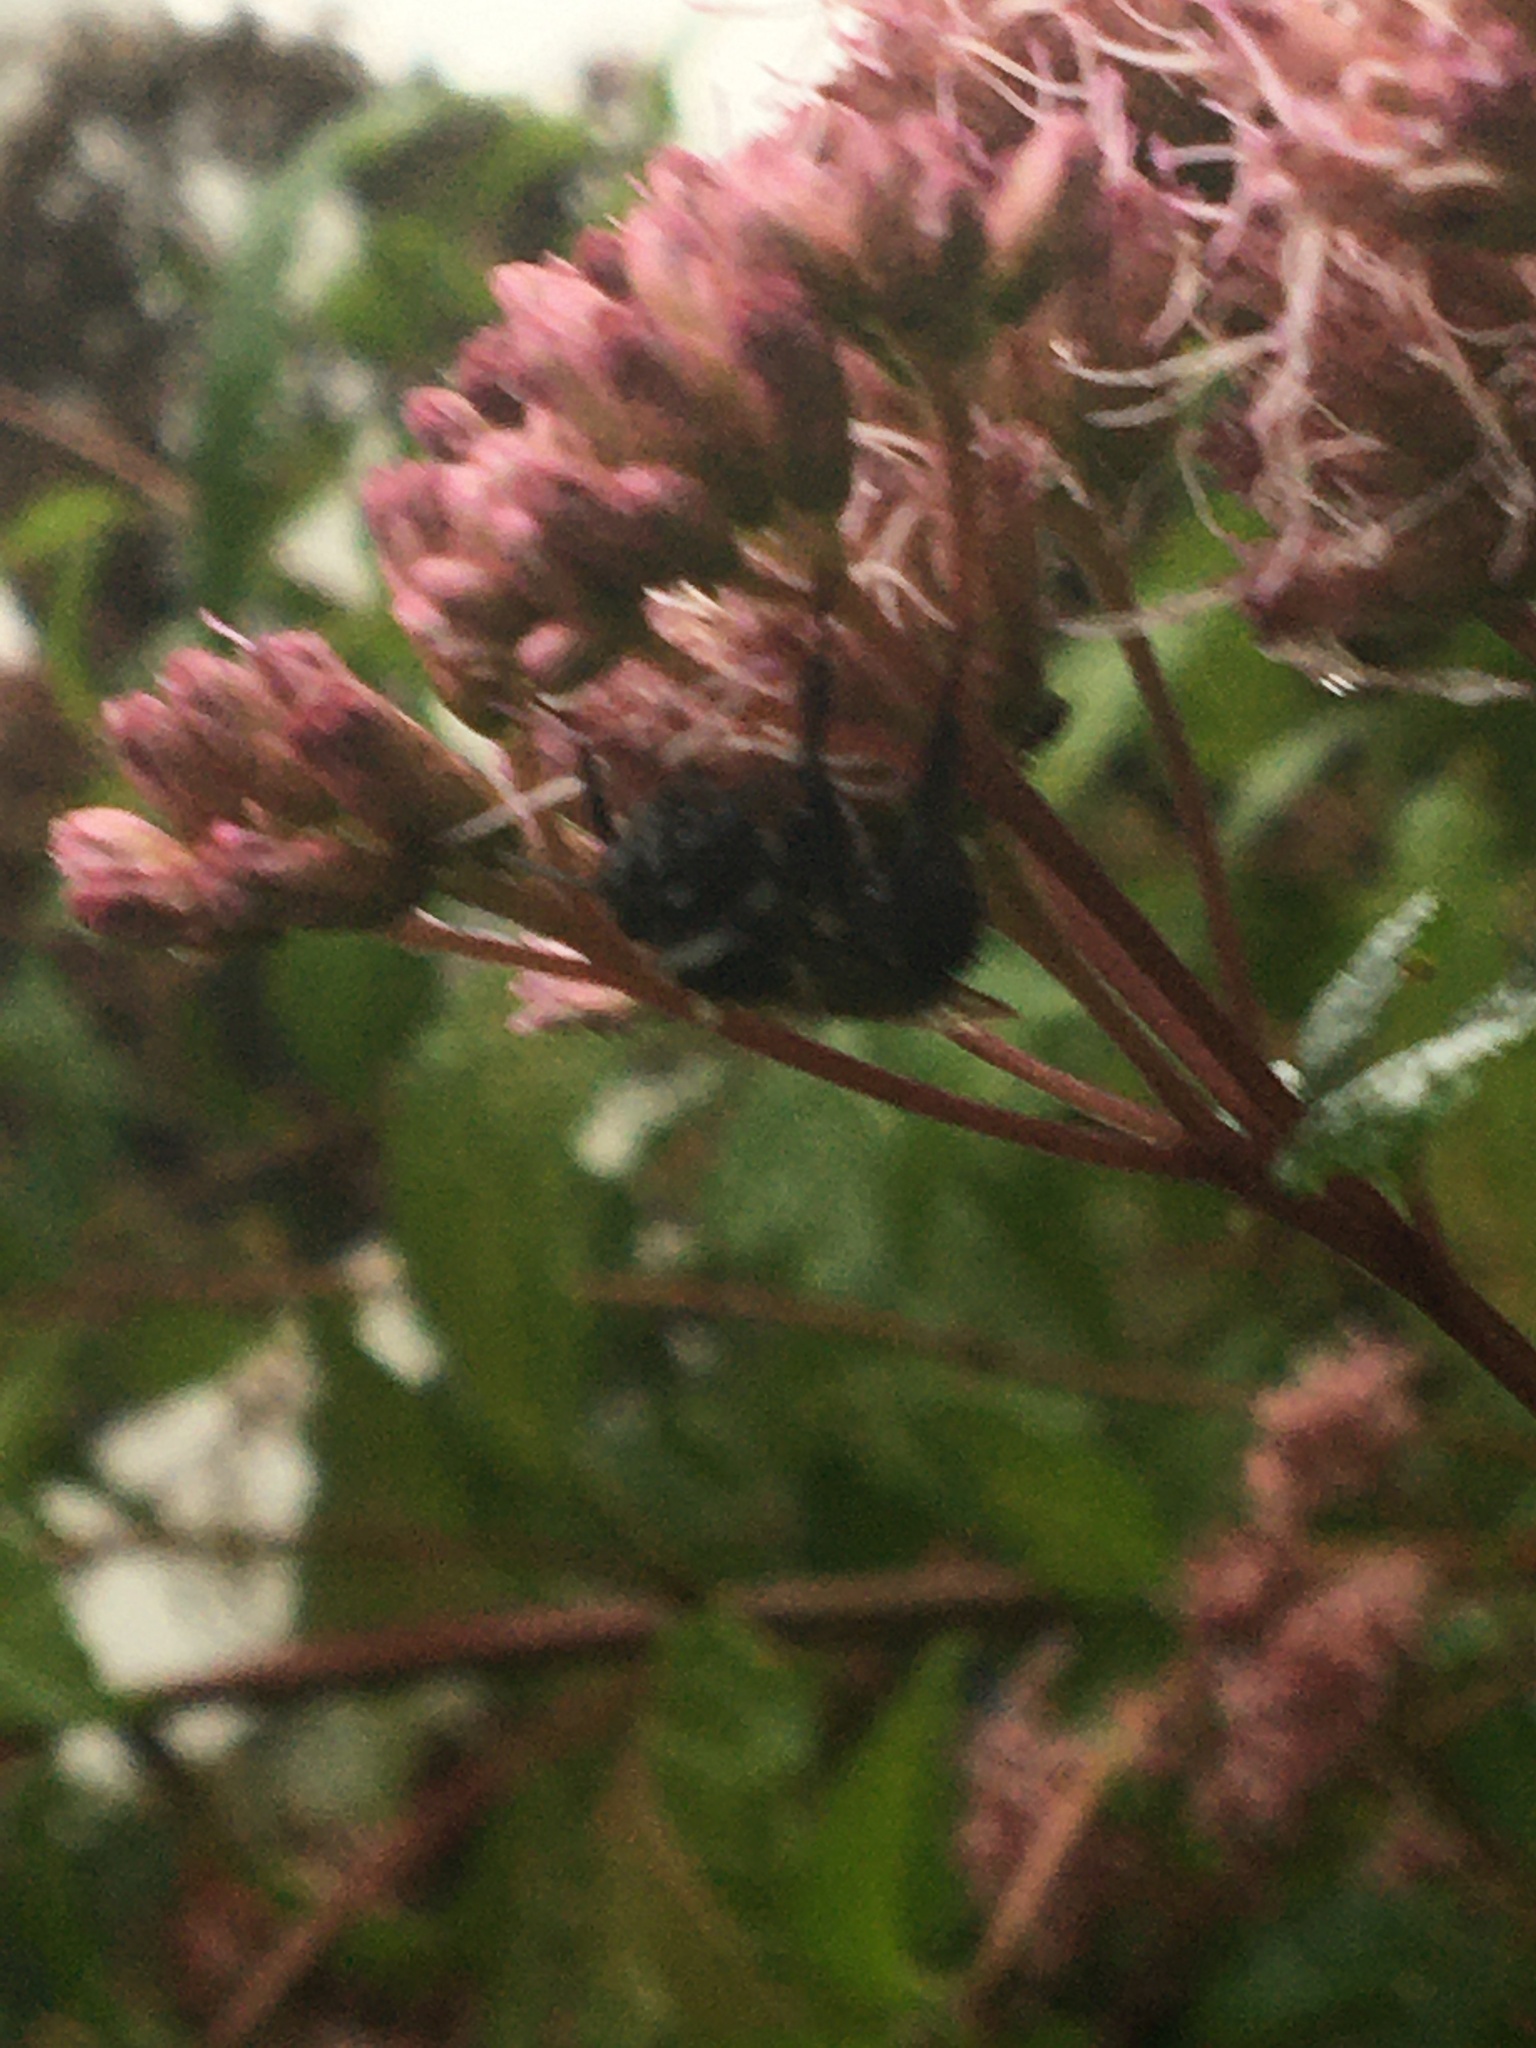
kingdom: Animalia
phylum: Arthropoda
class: Insecta
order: Hymenoptera
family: Apidae
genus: Bombus
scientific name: Bombus
